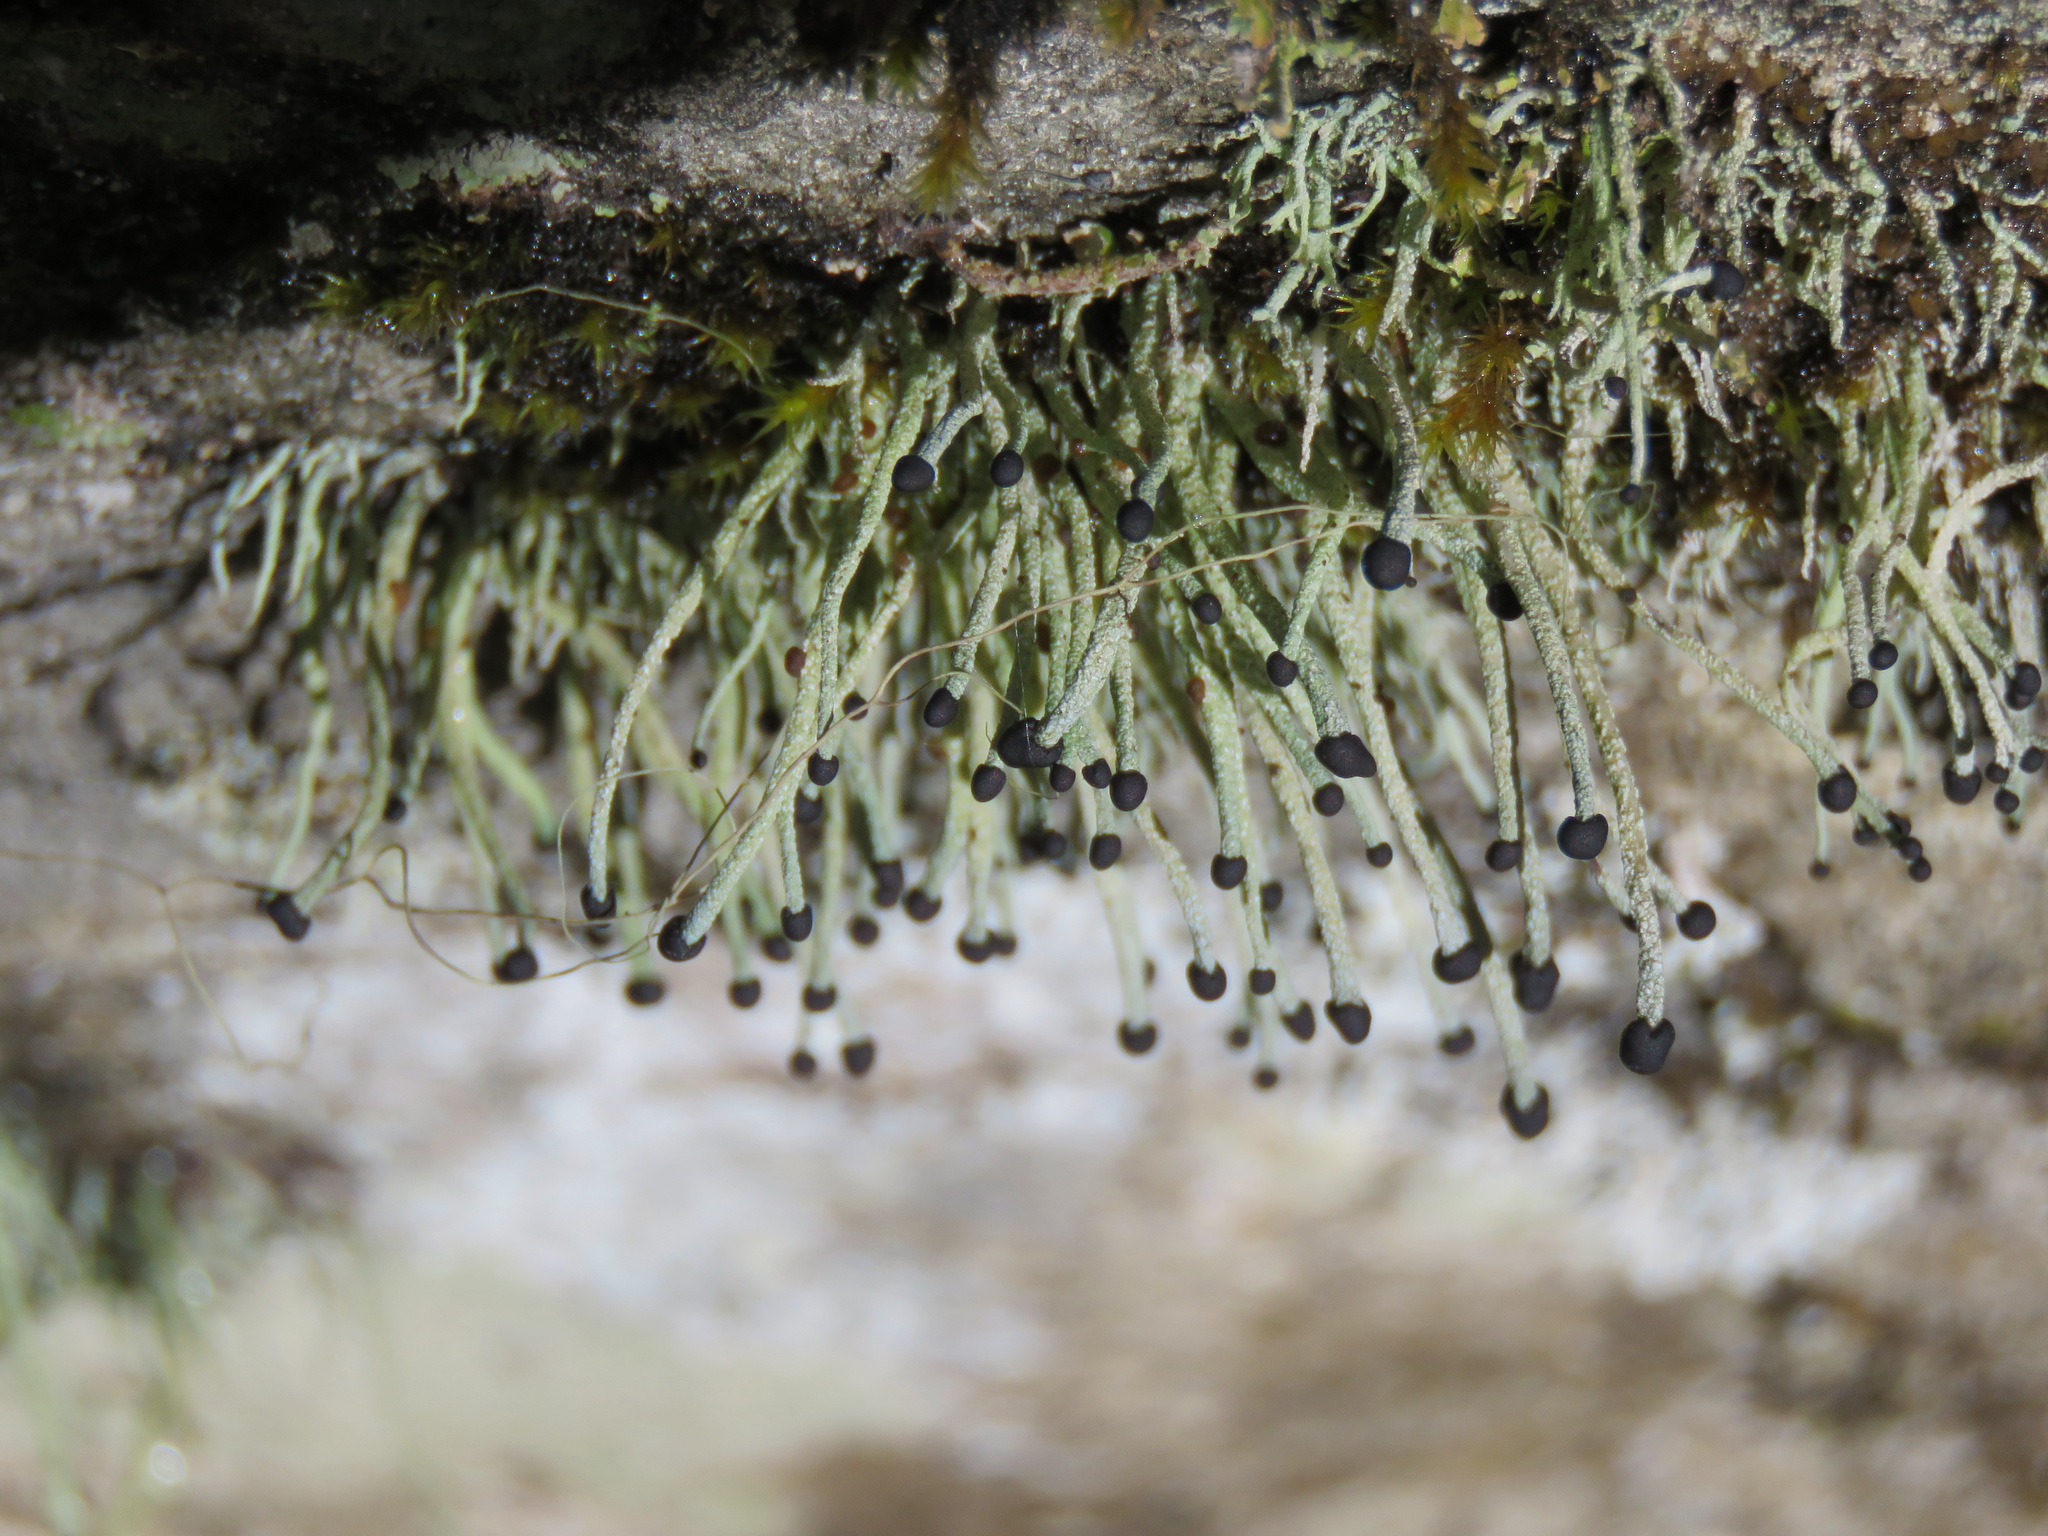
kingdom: Fungi
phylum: Ascomycota
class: Lecanoromycetes
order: Lecanorales
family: Cladoniaceae
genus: Pilophorus
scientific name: Pilophorus acicularis
